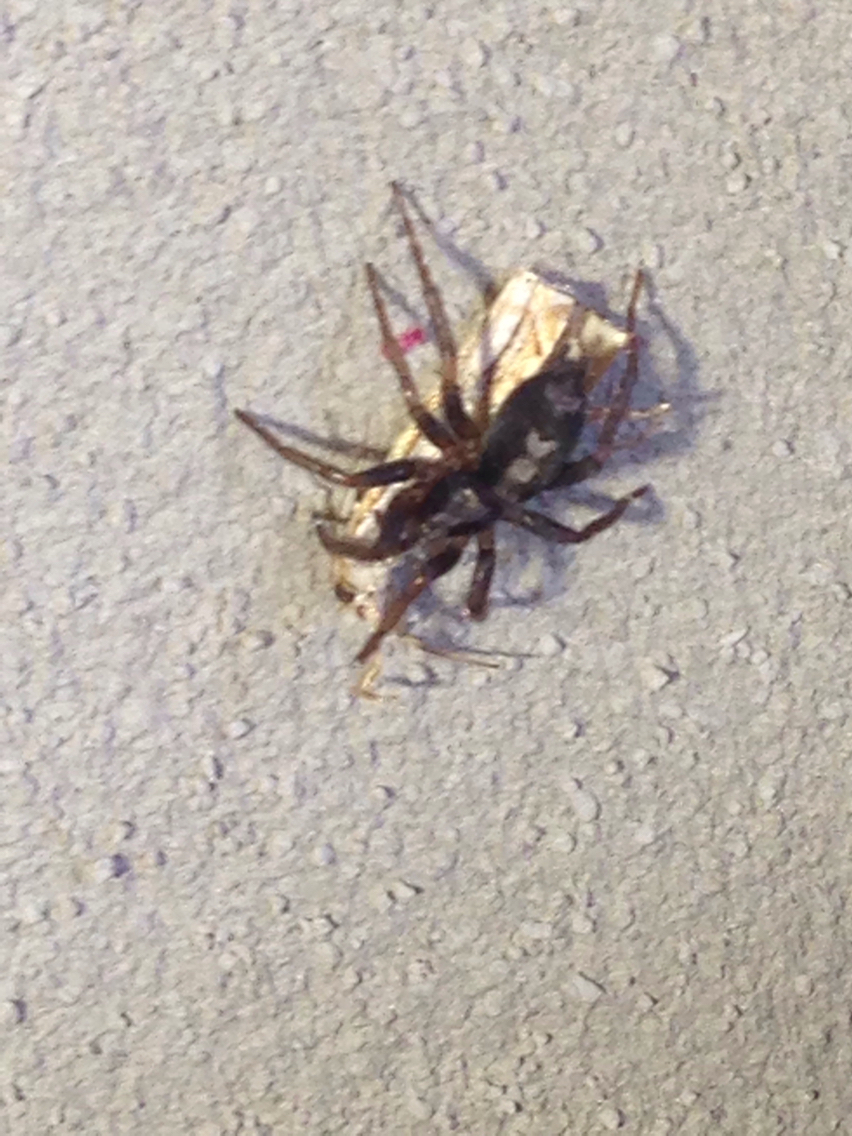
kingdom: Animalia
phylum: Arthropoda
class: Arachnida
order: Araneae
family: Gnaphosidae
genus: Herpyllus
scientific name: Herpyllus ecclesiasticus
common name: Eastern parson spider
